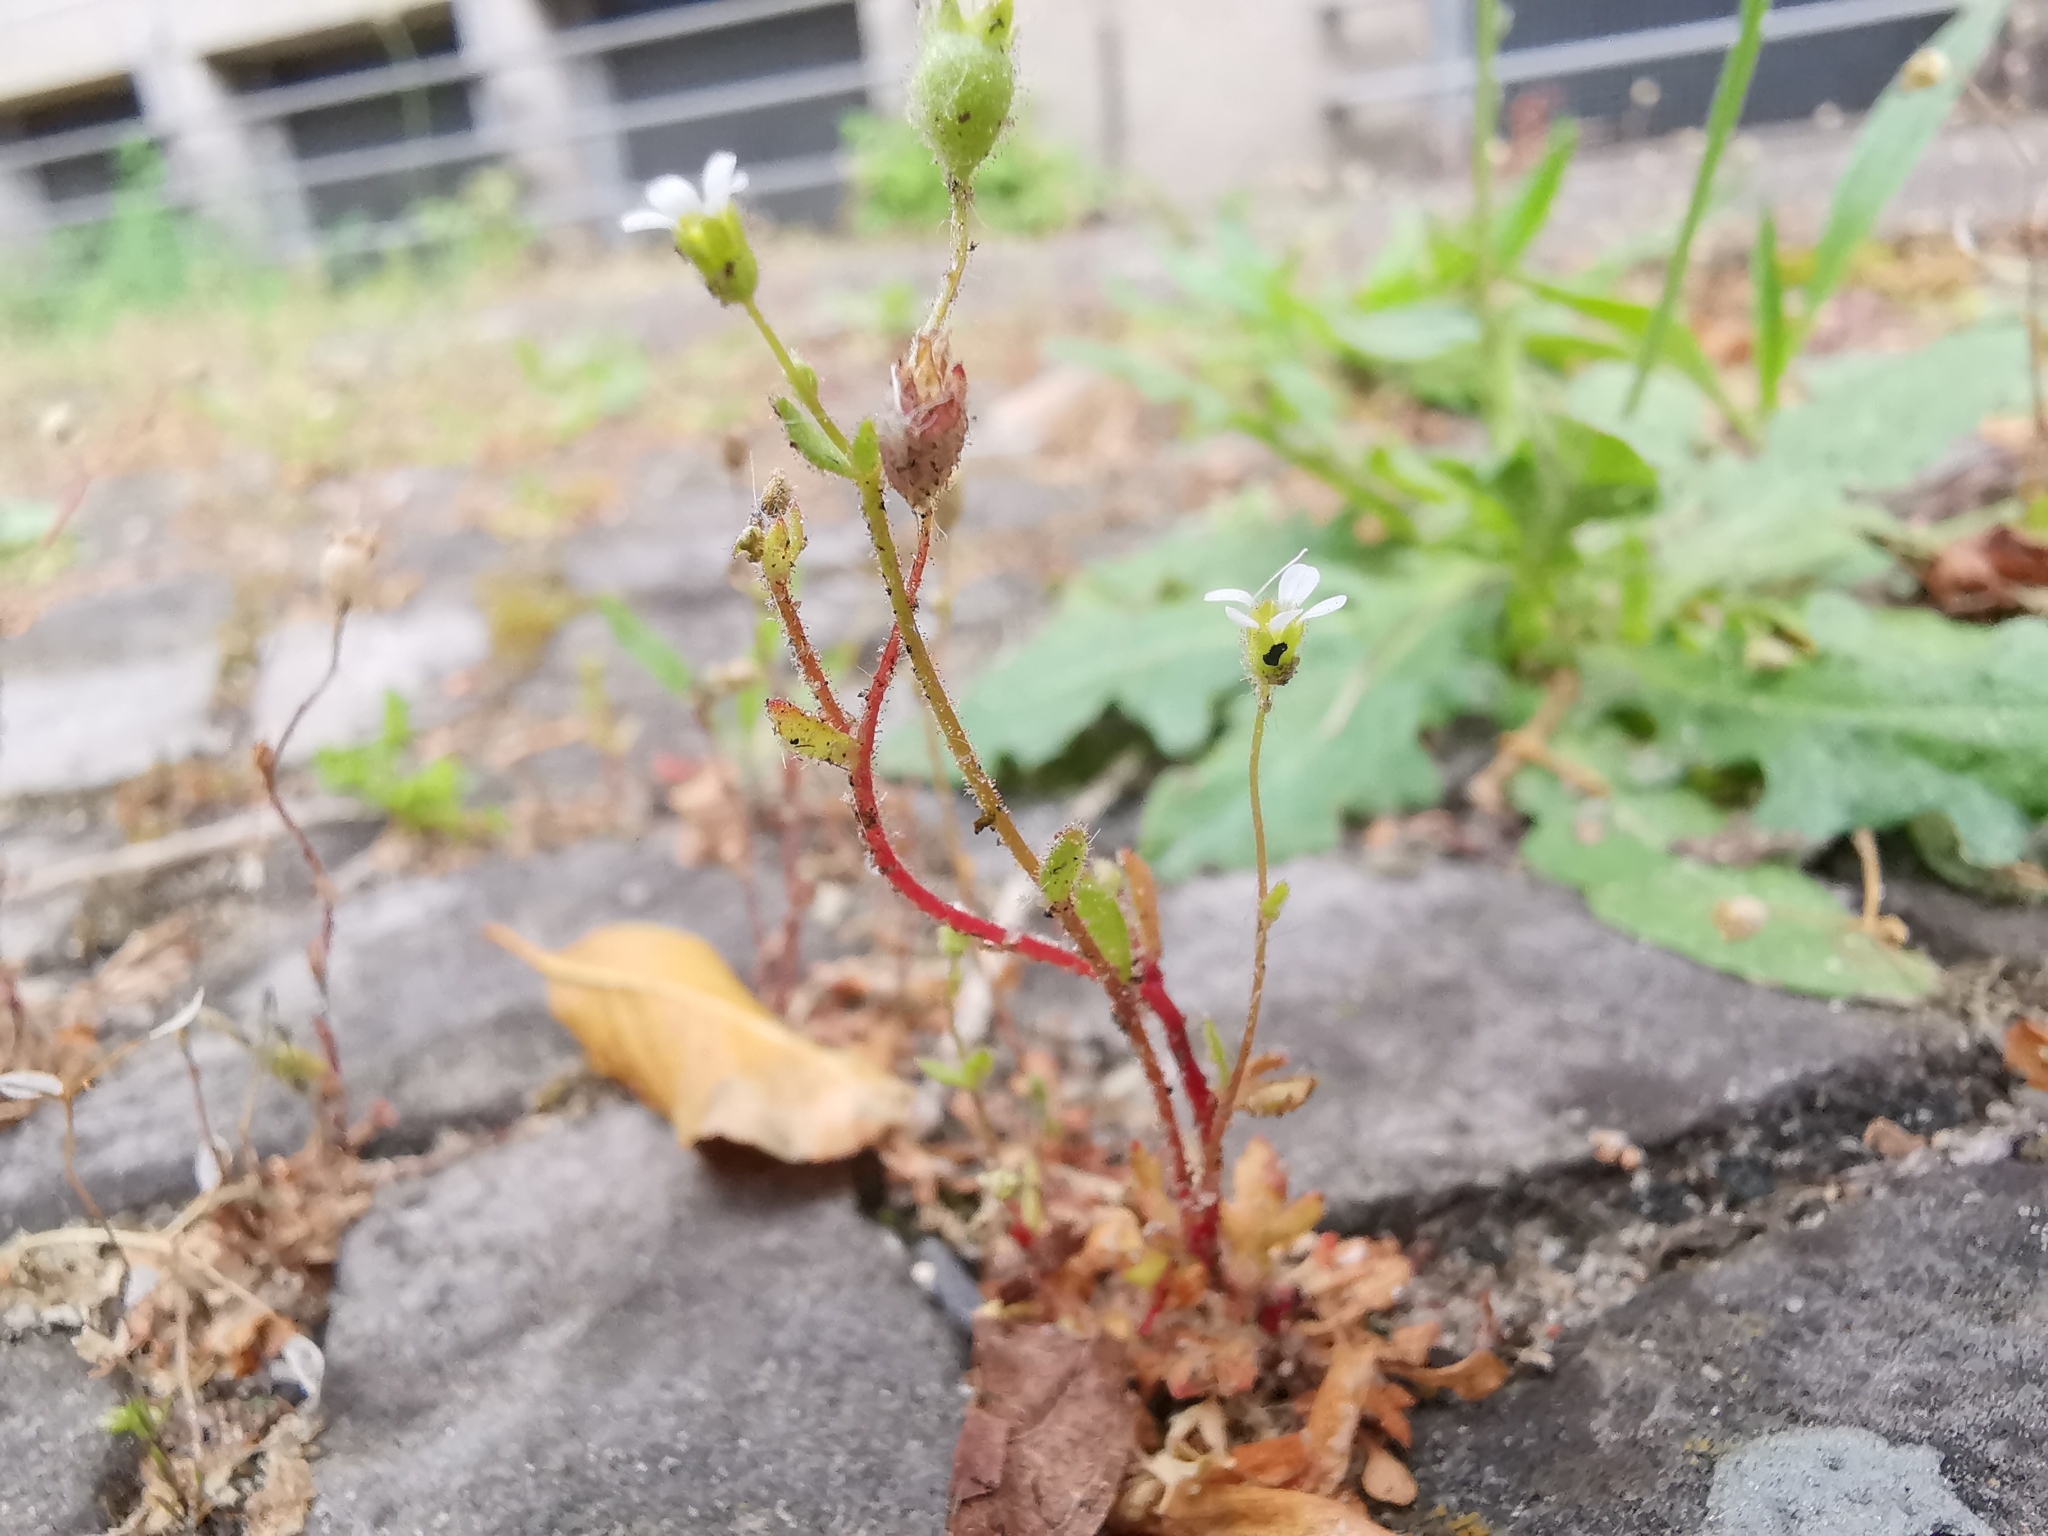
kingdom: Plantae
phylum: Tracheophyta
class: Magnoliopsida
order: Saxifragales
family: Saxifragaceae
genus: Saxifraga
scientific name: Saxifraga tridactylites
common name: Rue-leaved saxifrage
